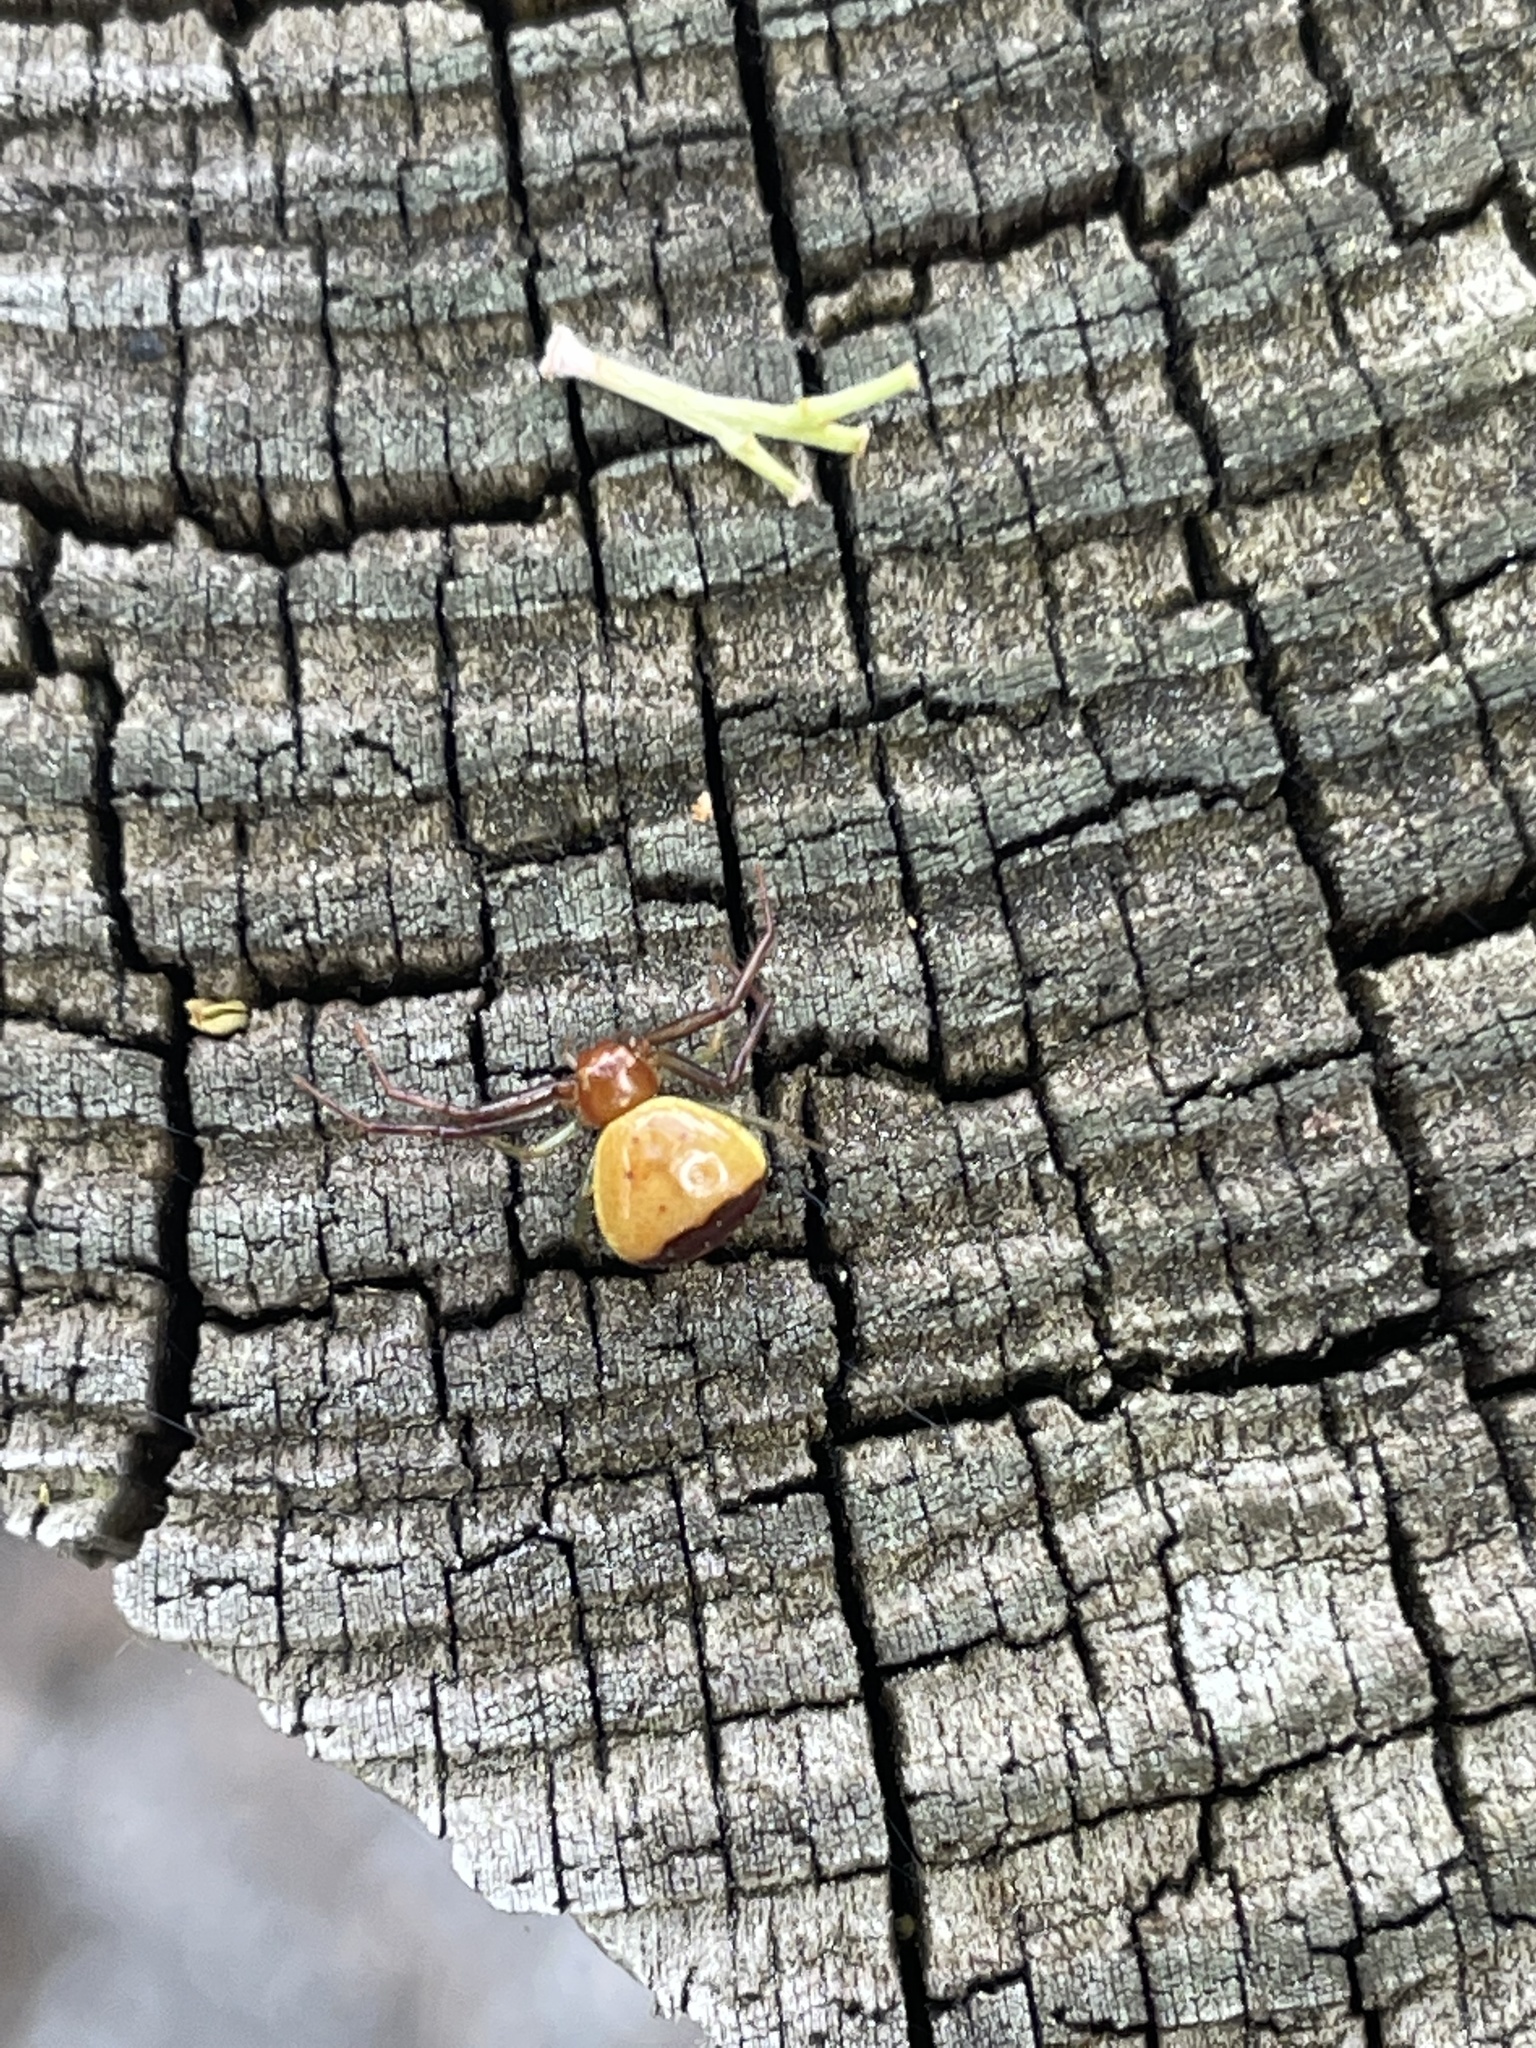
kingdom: Animalia
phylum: Arthropoda
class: Arachnida
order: Araneae
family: Thomisidae
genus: Synema
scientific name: Synema parvulum
